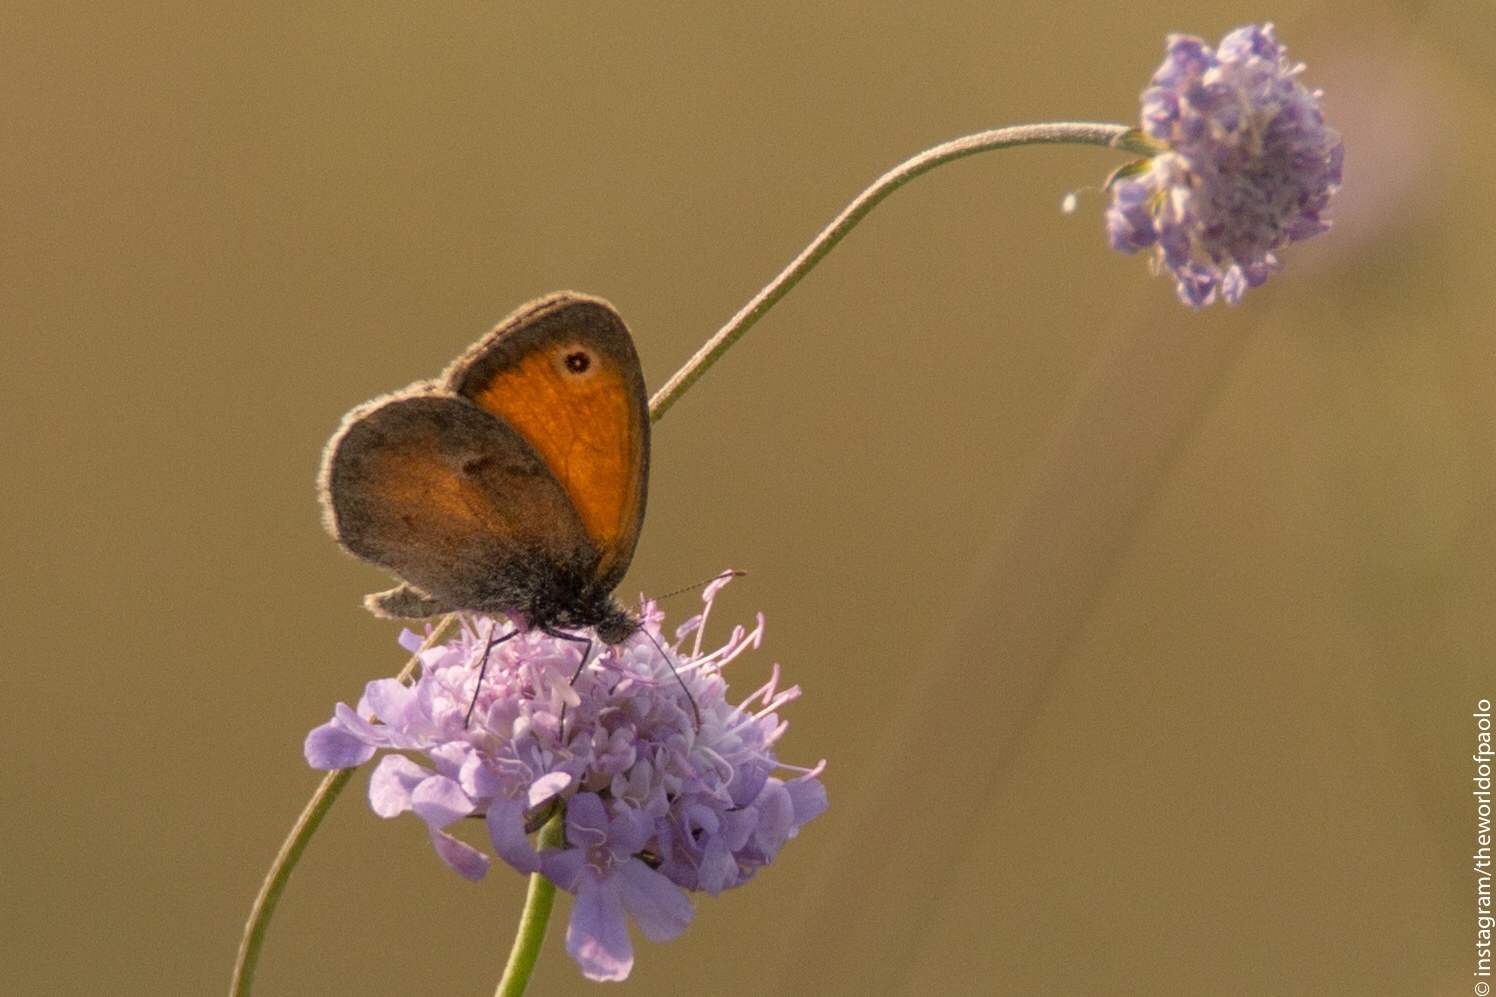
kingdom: Animalia
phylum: Arthropoda
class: Insecta
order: Lepidoptera
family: Nymphalidae
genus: Coenonympha
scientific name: Coenonympha pamphilus
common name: Small heath
